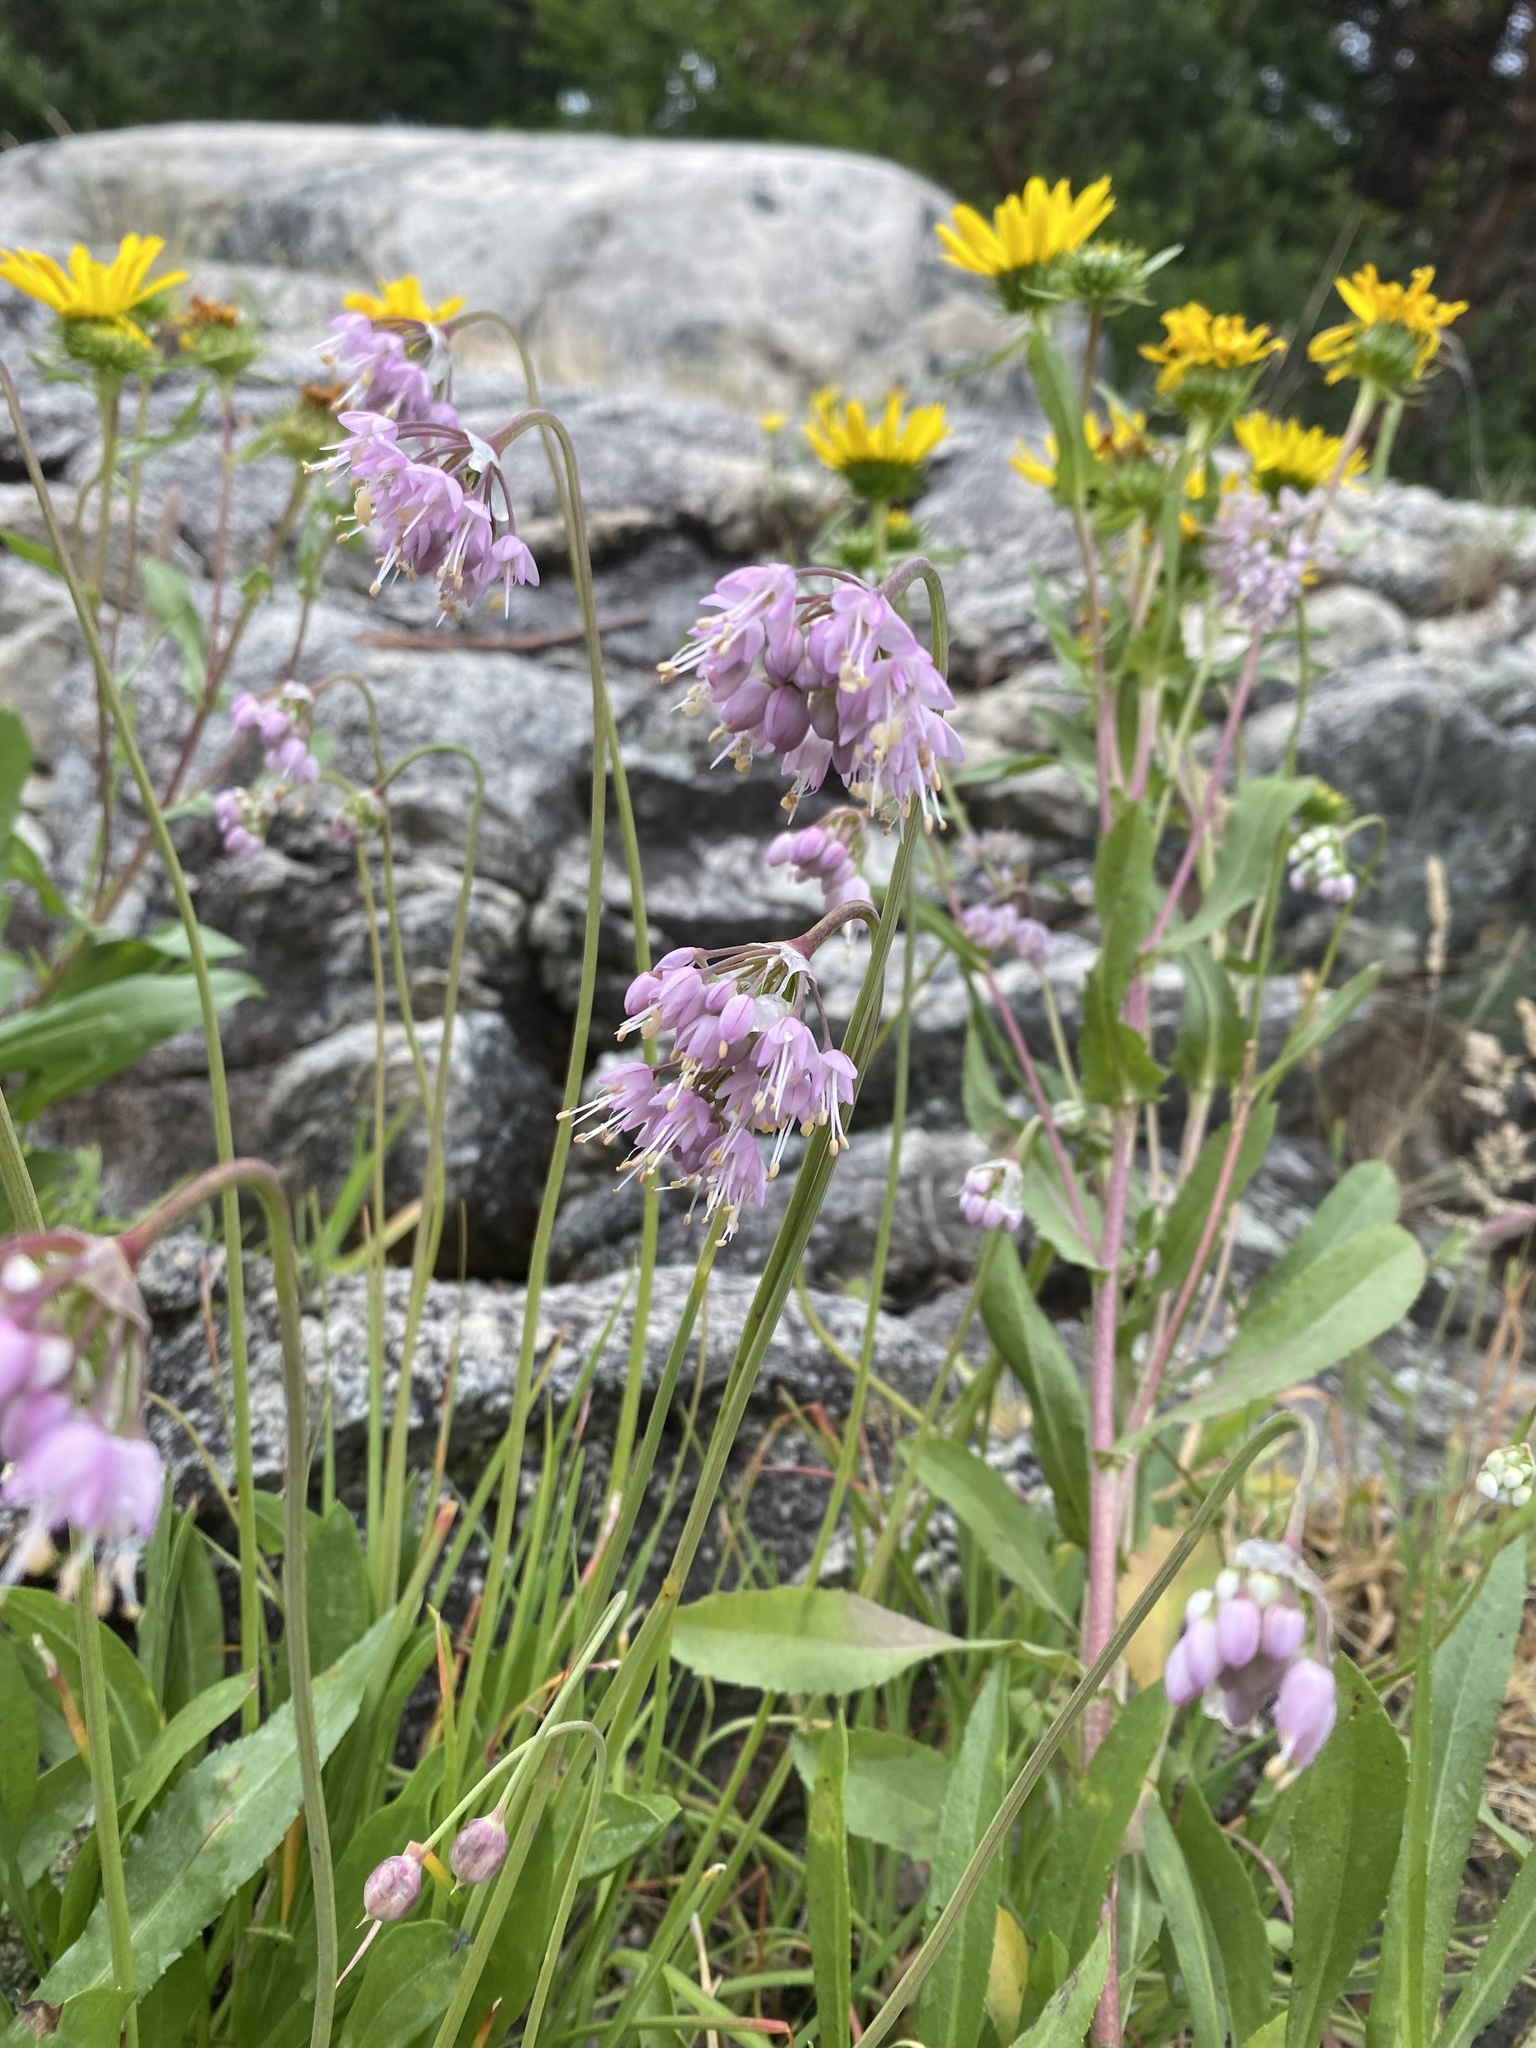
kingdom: Plantae
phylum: Tracheophyta
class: Liliopsida
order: Asparagales
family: Amaryllidaceae
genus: Allium
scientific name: Allium cernuum
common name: Nodding onion
